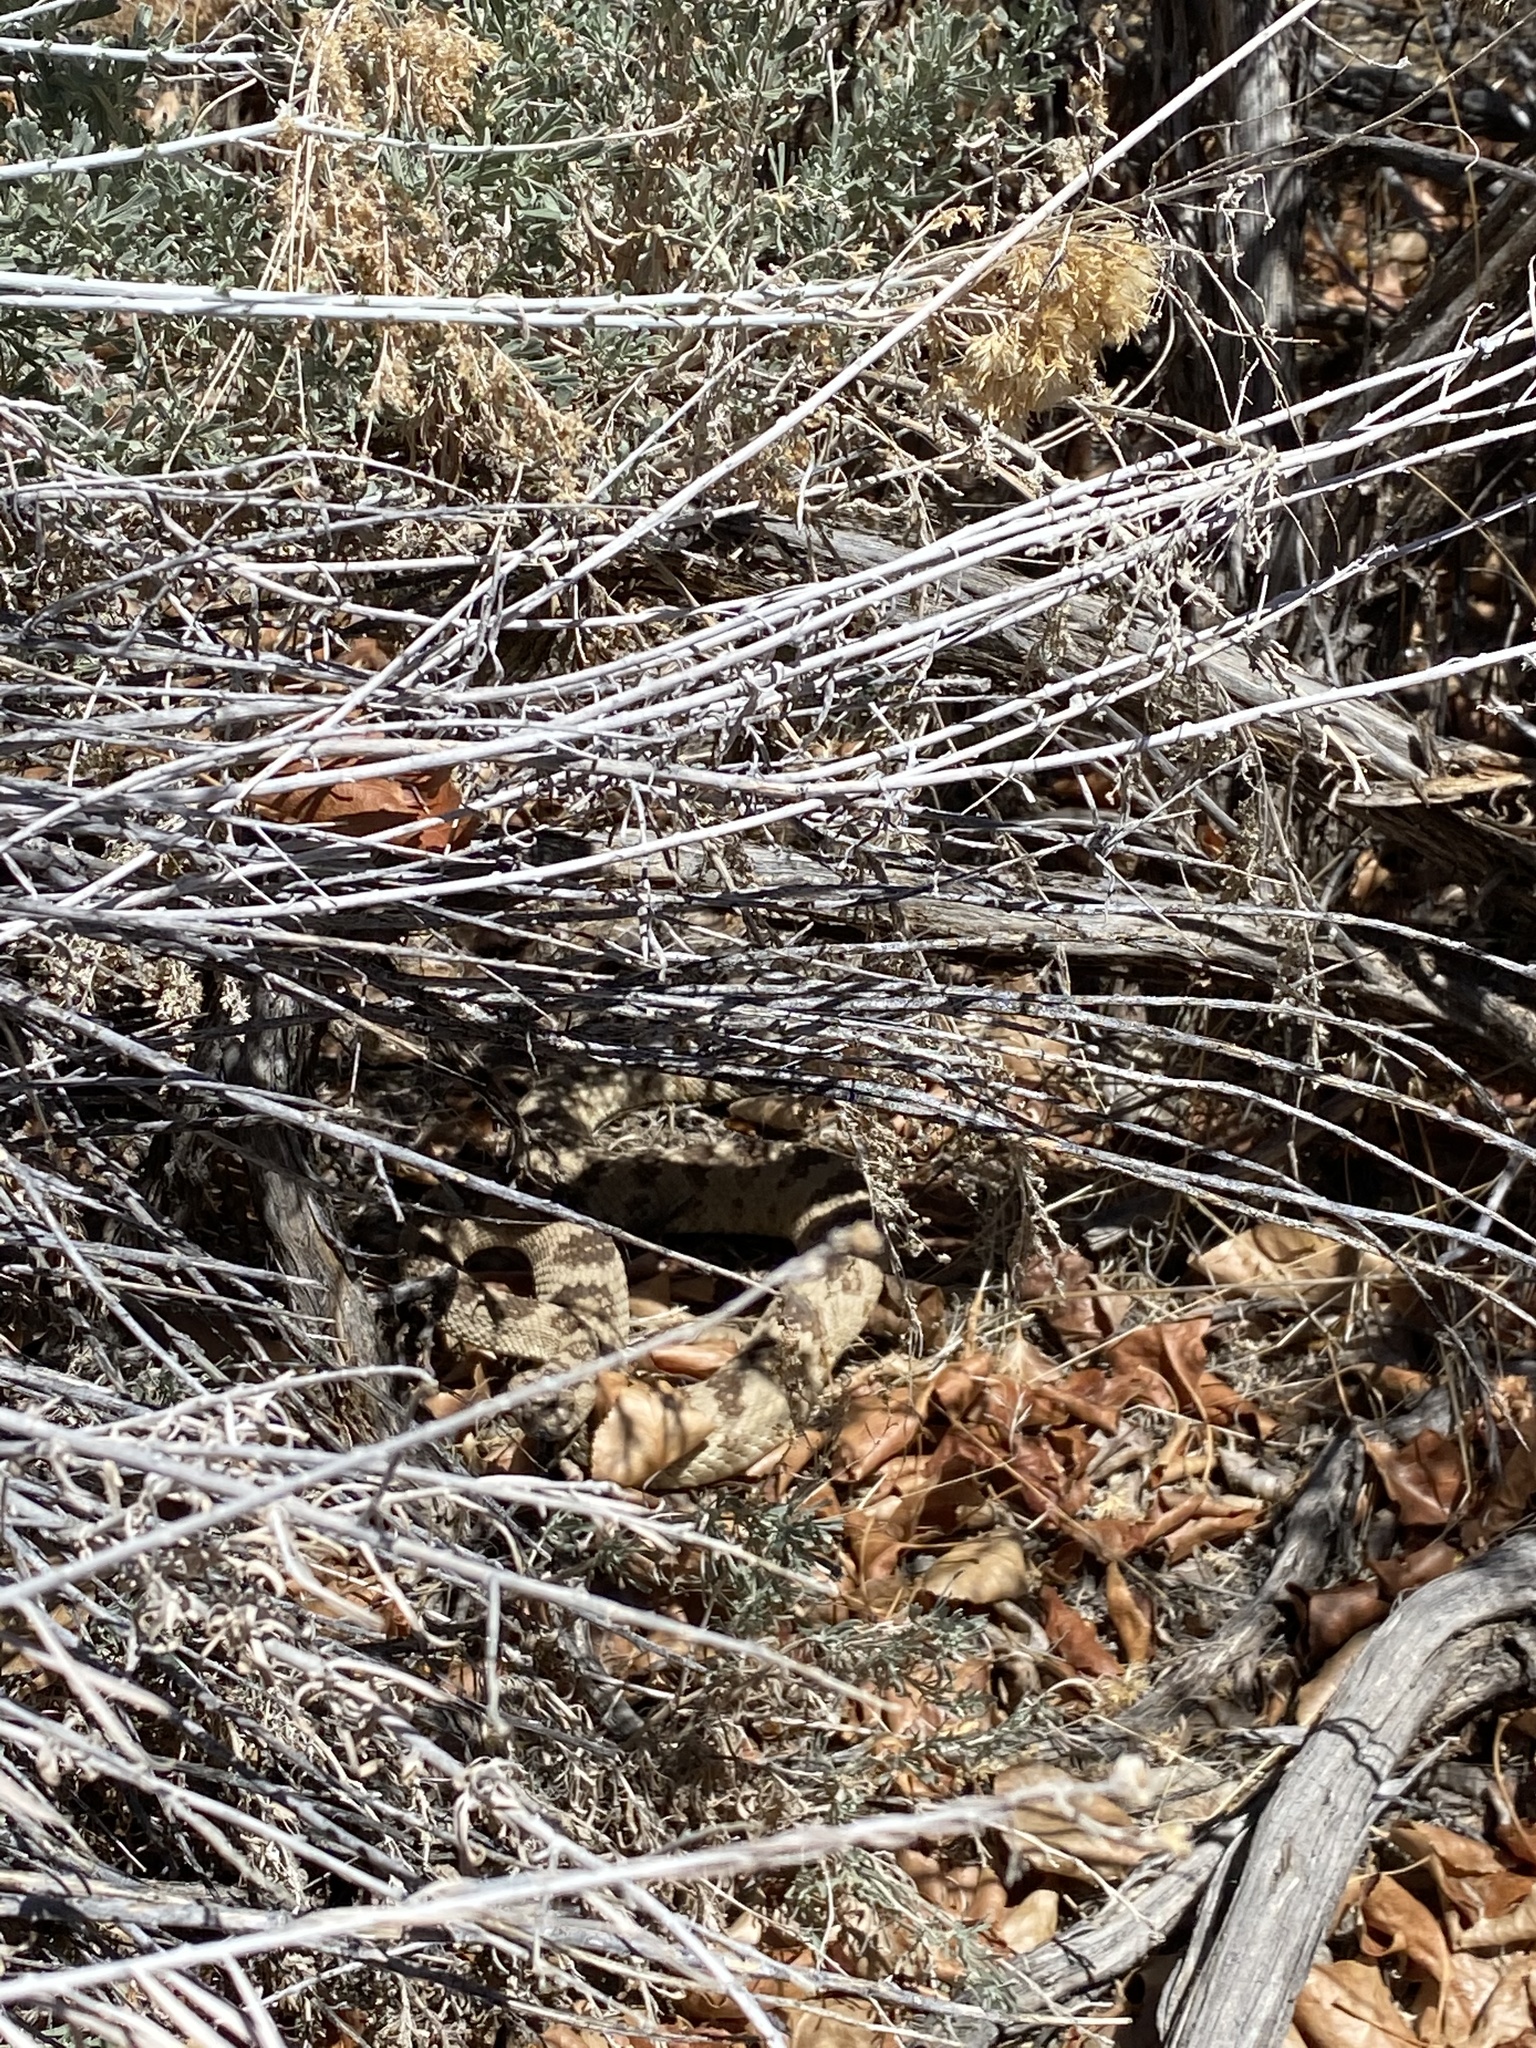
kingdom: Animalia
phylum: Chordata
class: Squamata
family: Viperidae
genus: Crotalus
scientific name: Crotalus oreganus
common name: Abyssus
